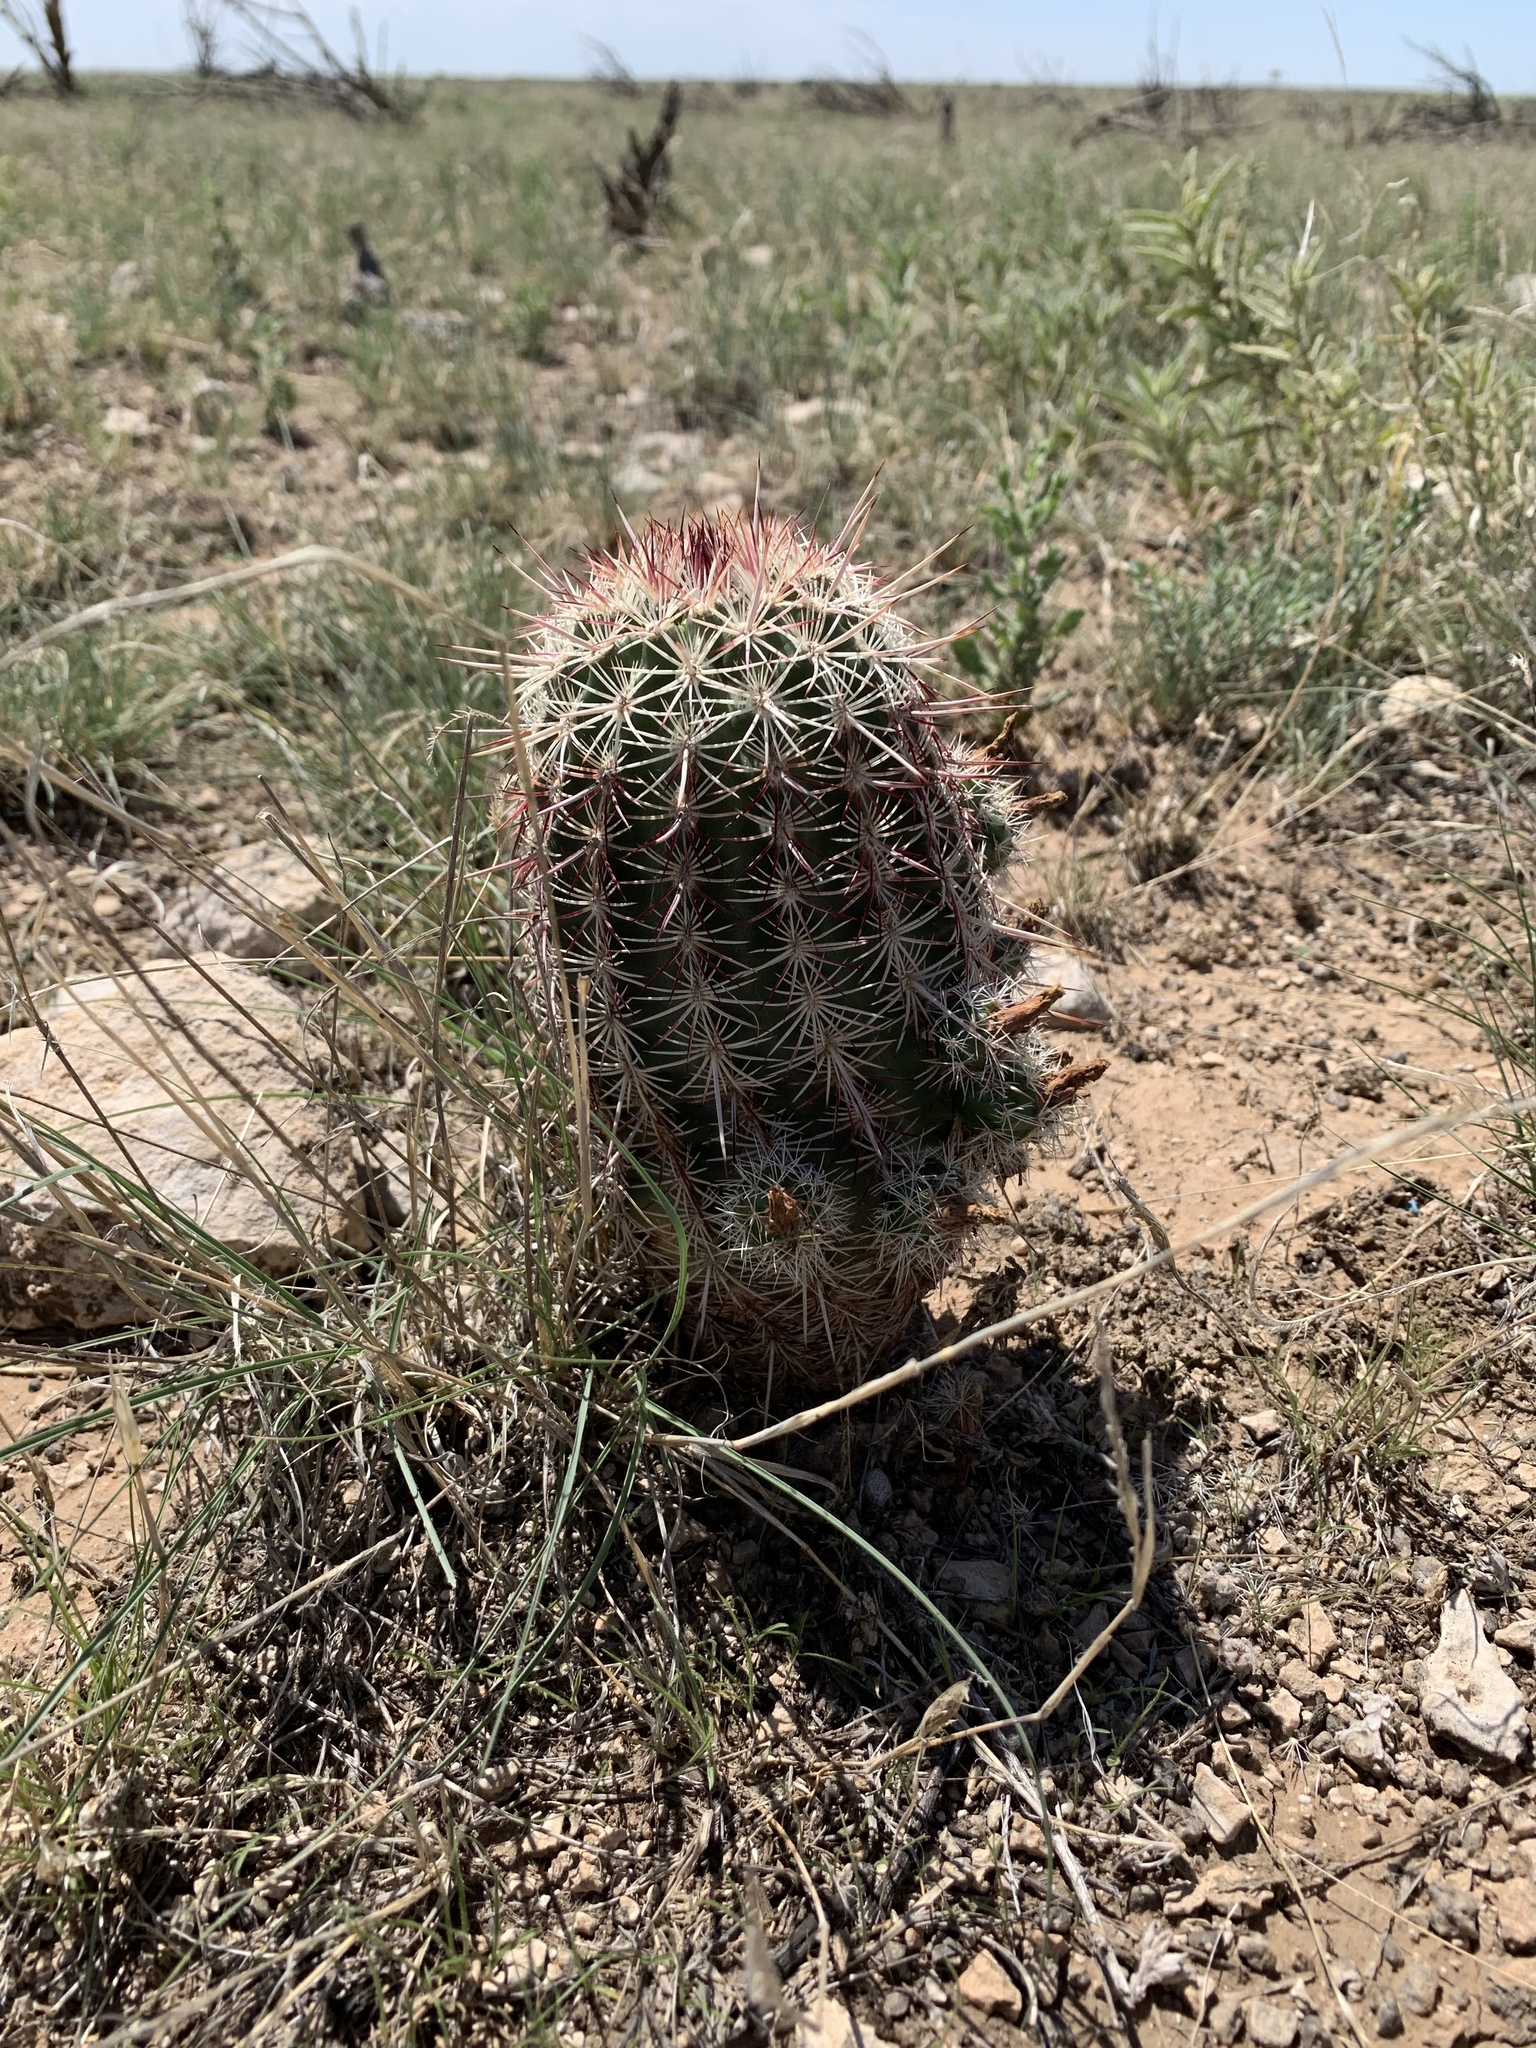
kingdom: Plantae
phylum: Tracheophyta
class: Magnoliopsida
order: Caryophyllales
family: Cactaceae
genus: Echinocereus
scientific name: Echinocereus viridiflorus
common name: Nylon hedgehog cactus
